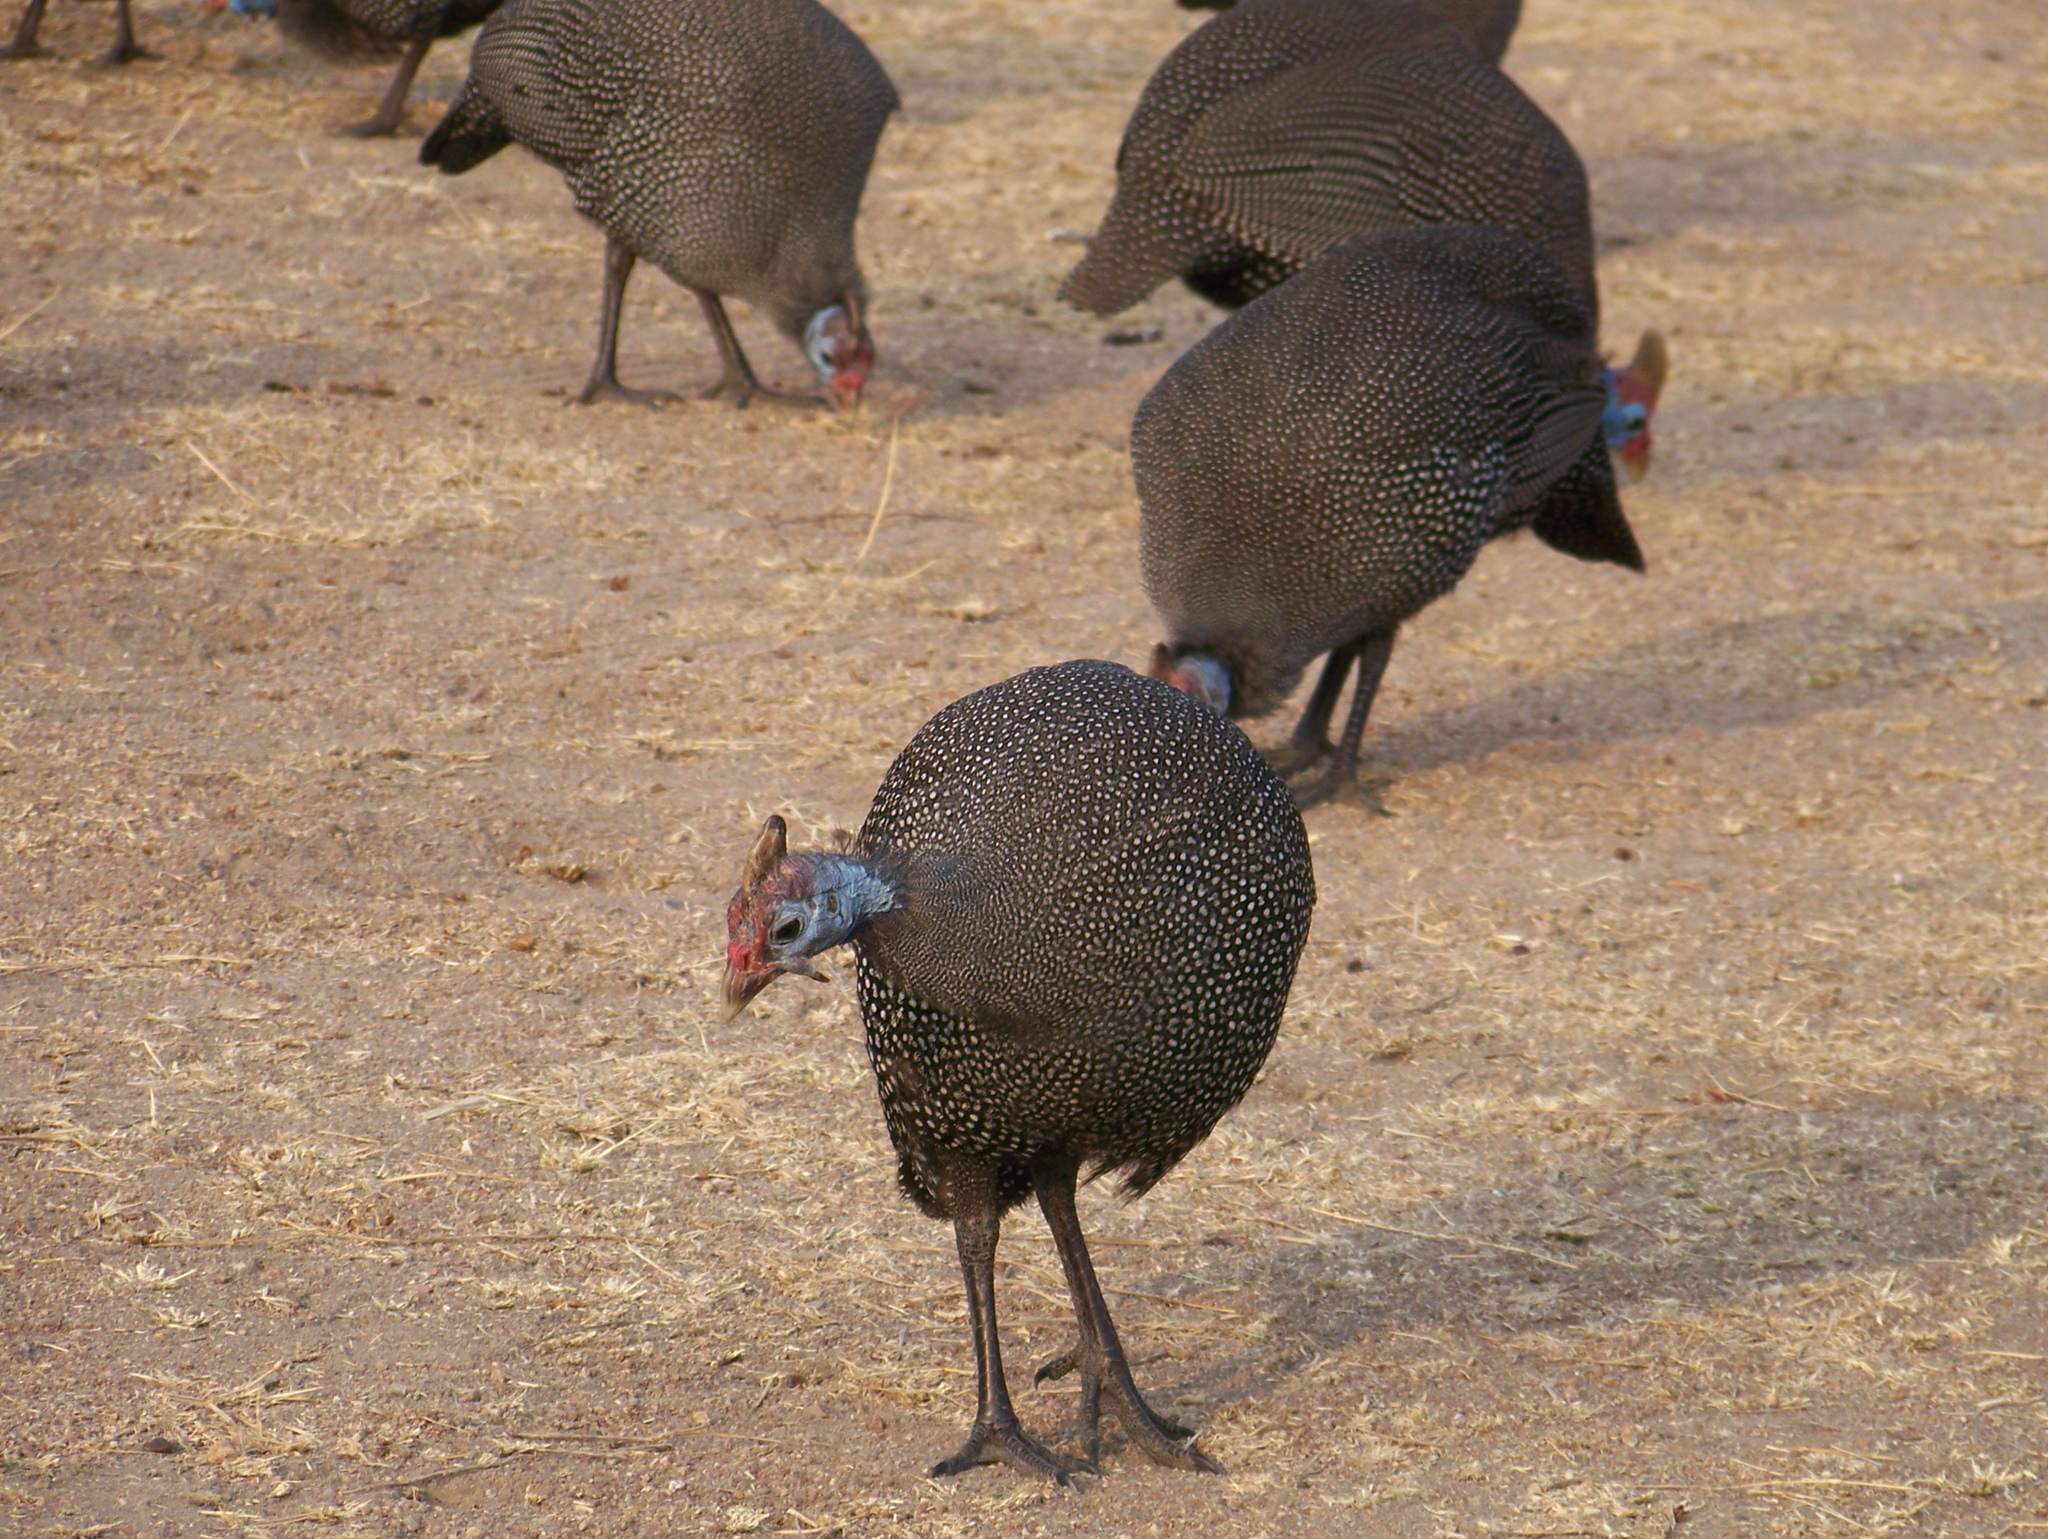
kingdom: Animalia
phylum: Chordata
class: Aves
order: Galliformes
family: Numididae
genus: Numida
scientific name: Numida meleagris
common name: Helmeted guineafowl
